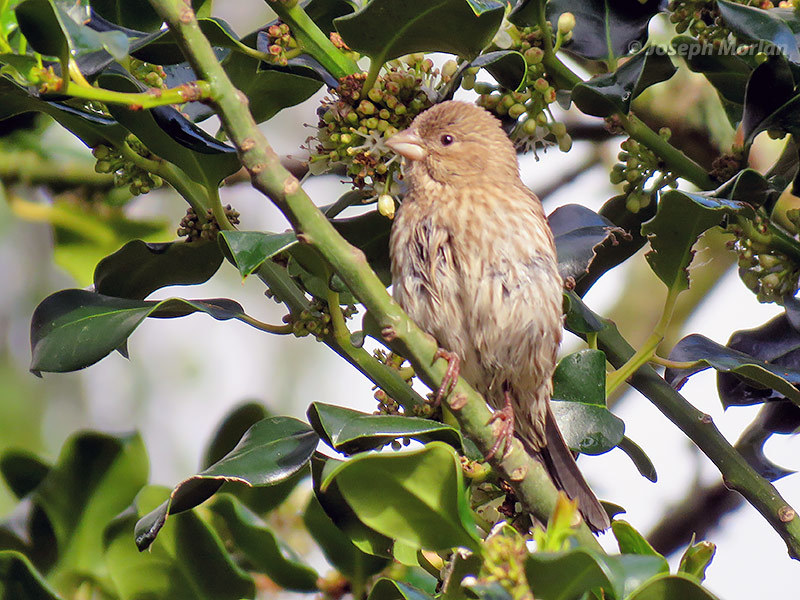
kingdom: Animalia
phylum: Chordata
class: Aves
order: Passeriformes
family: Fringillidae
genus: Haemorhous
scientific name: Haemorhous mexicanus
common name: House finch
